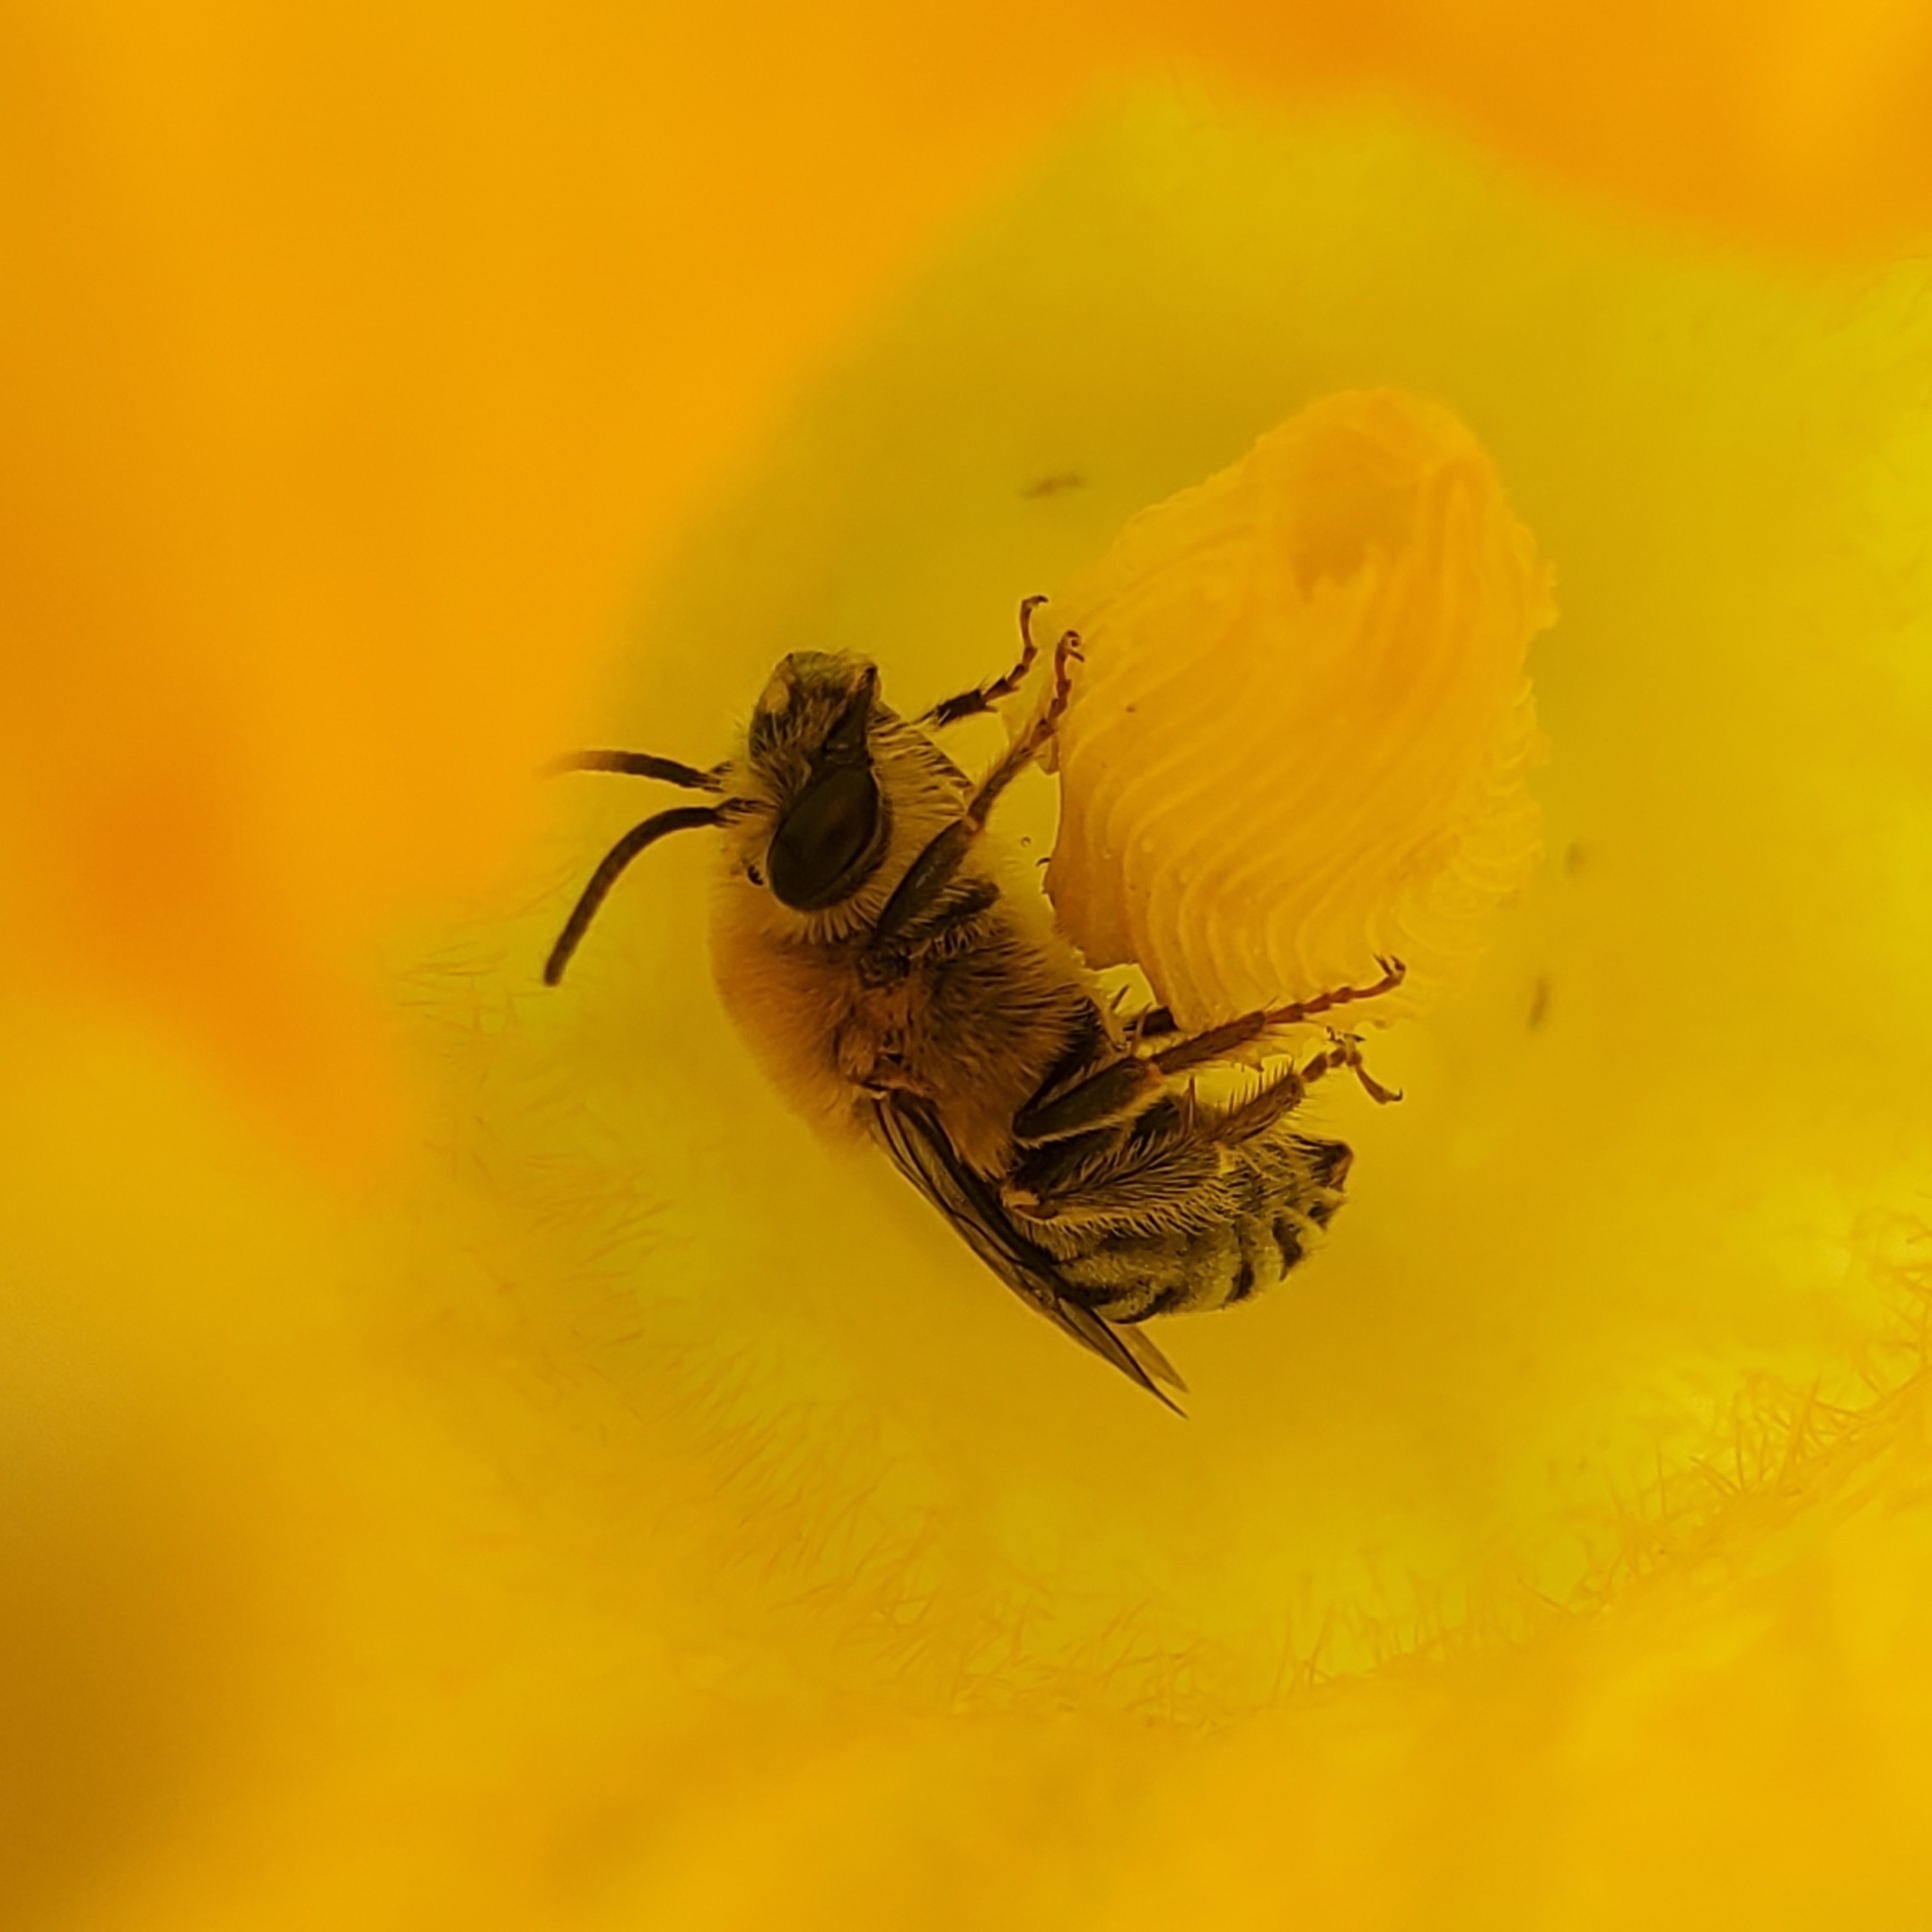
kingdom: Animalia
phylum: Arthropoda
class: Insecta
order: Hymenoptera
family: Apidae
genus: Peponapis
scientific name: Peponapis pruinosa
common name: Pruinose squash bee
